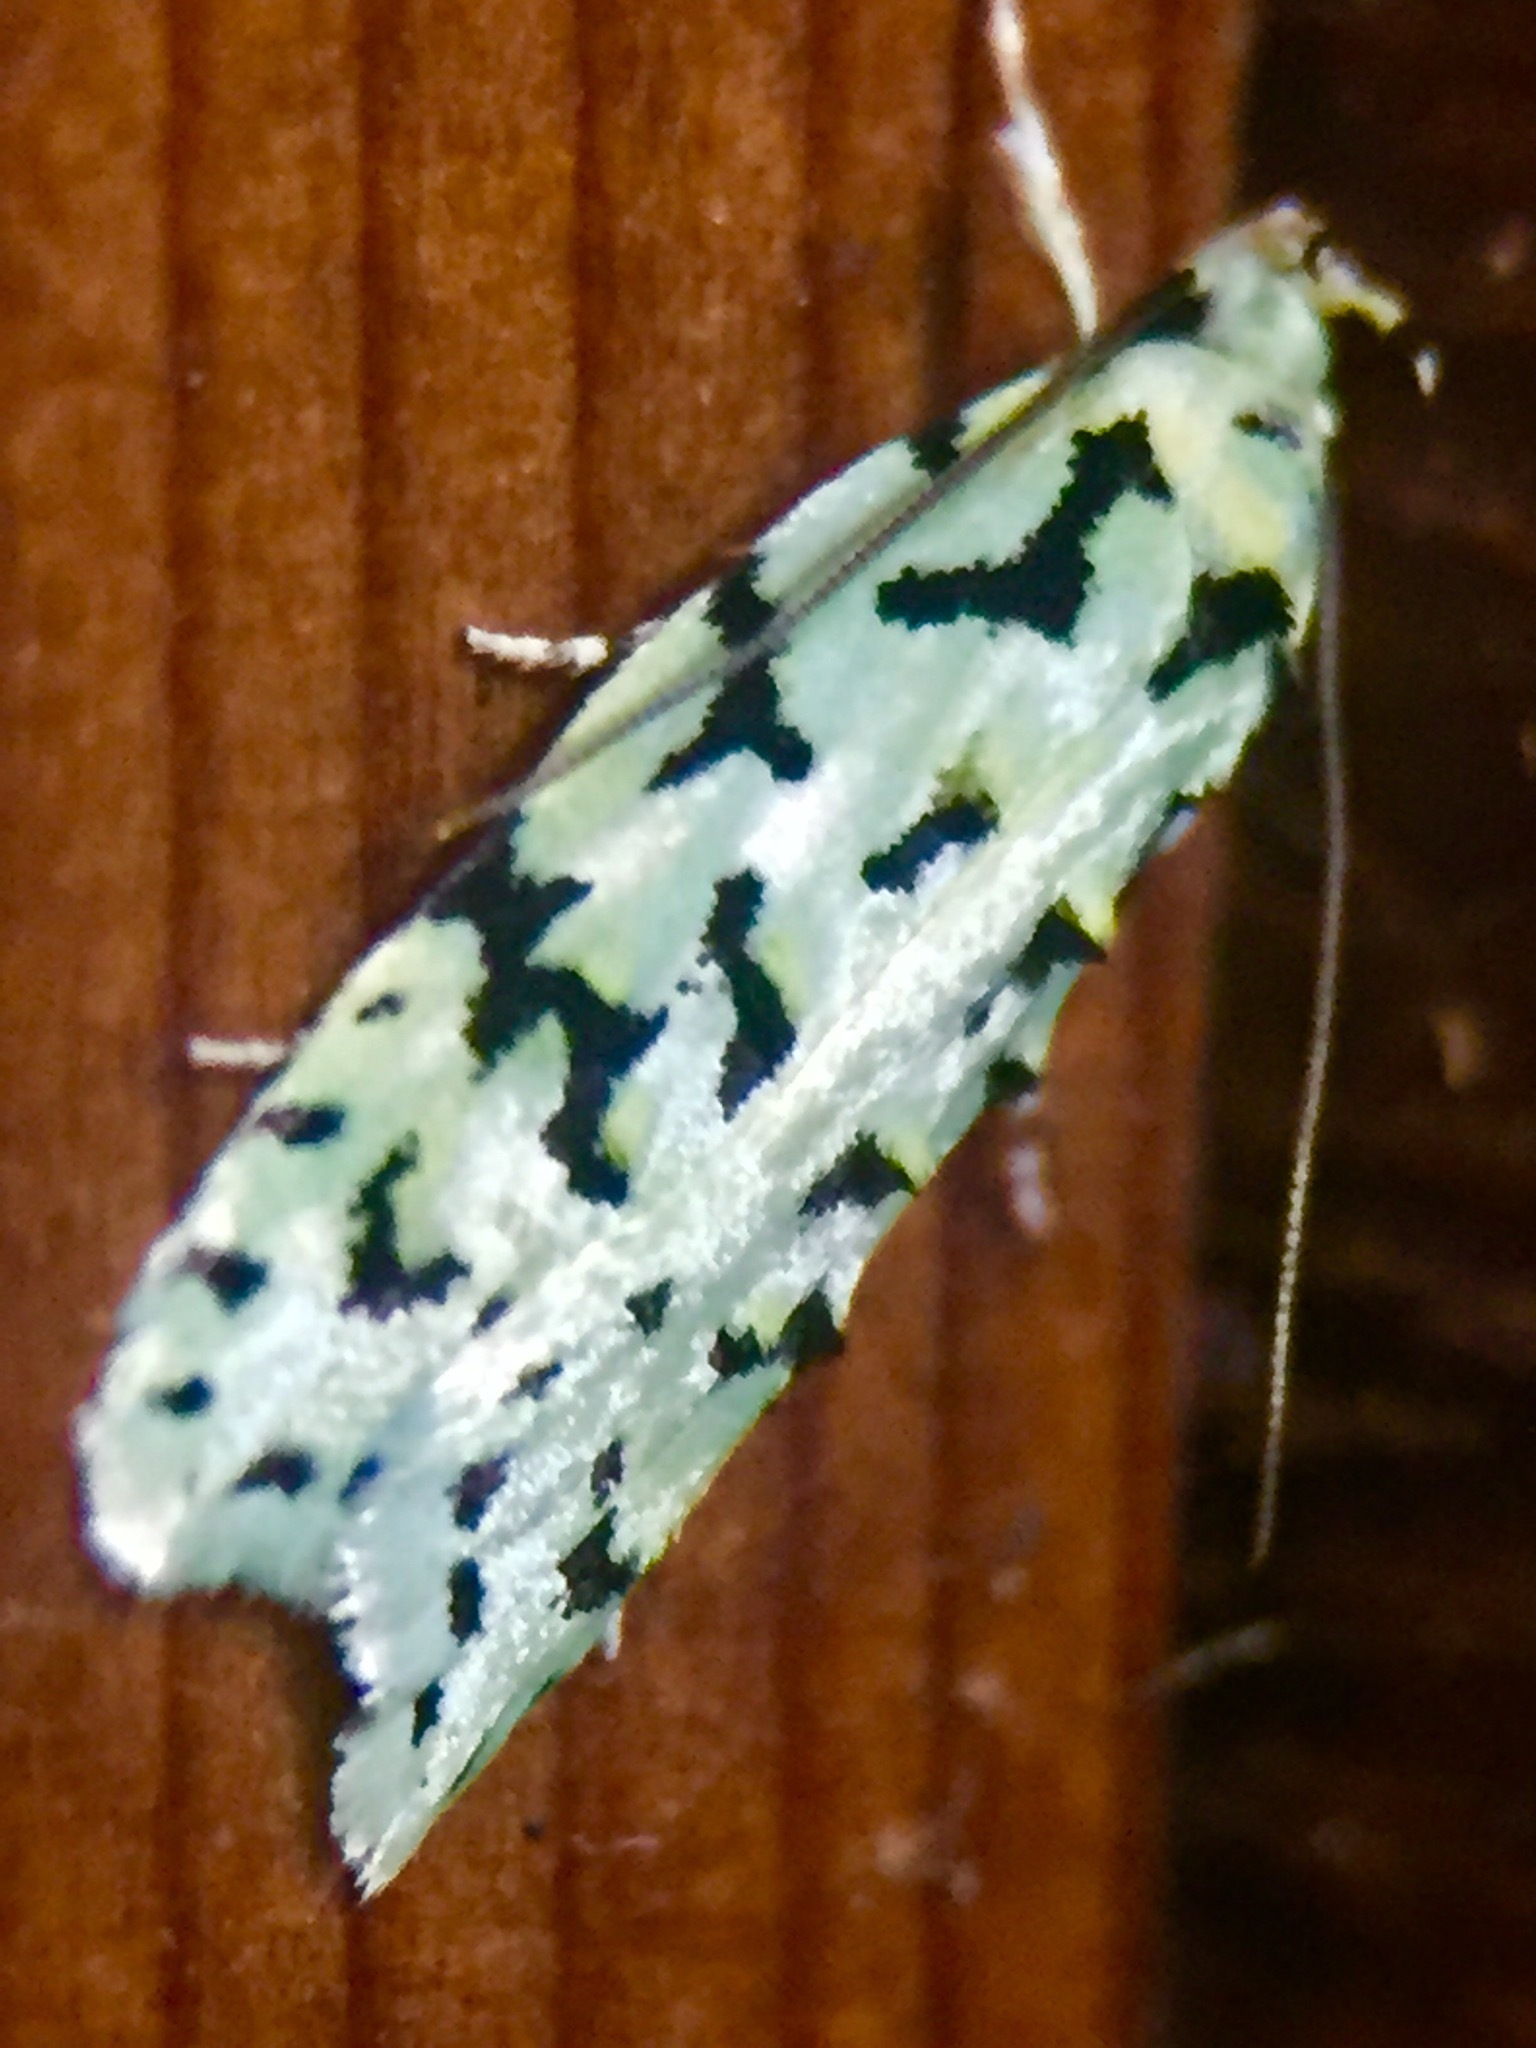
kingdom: Animalia
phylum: Arthropoda
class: Insecta
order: Lepidoptera
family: Oecophoridae
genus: Izatha
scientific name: Izatha peroneanella
